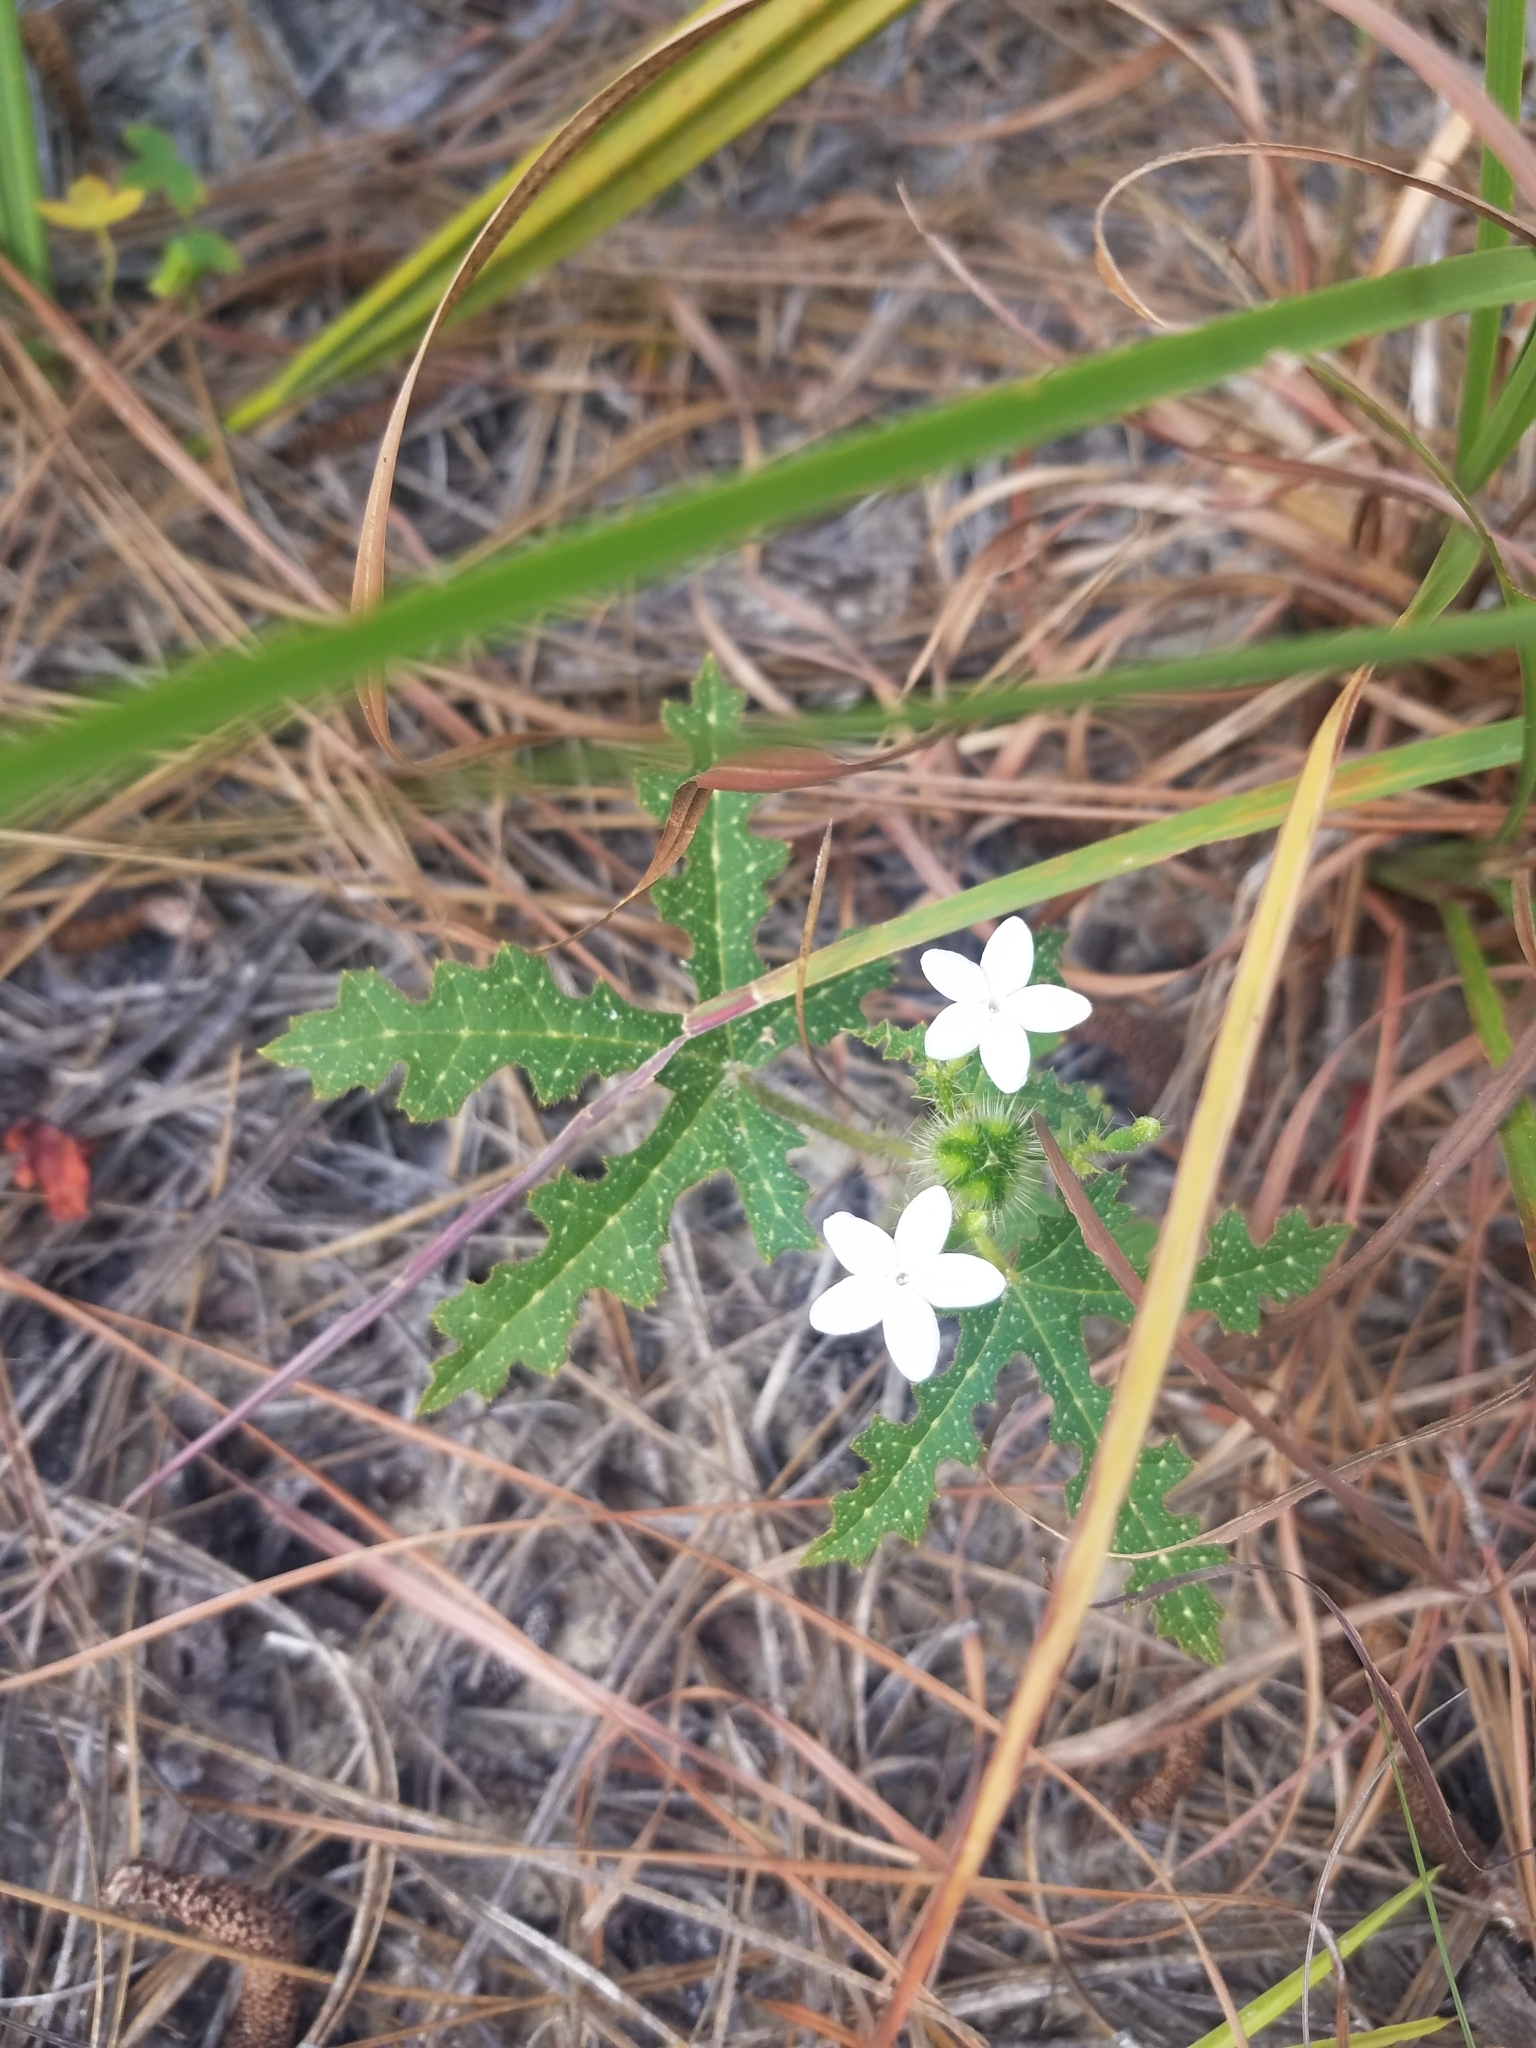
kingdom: Plantae
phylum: Tracheophyta
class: Magnoliopsida
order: Malpighiales
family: Euphorbiaceae
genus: Cnidoscolus
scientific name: Cnidoscolus stimulosus
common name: Bull-nettle
